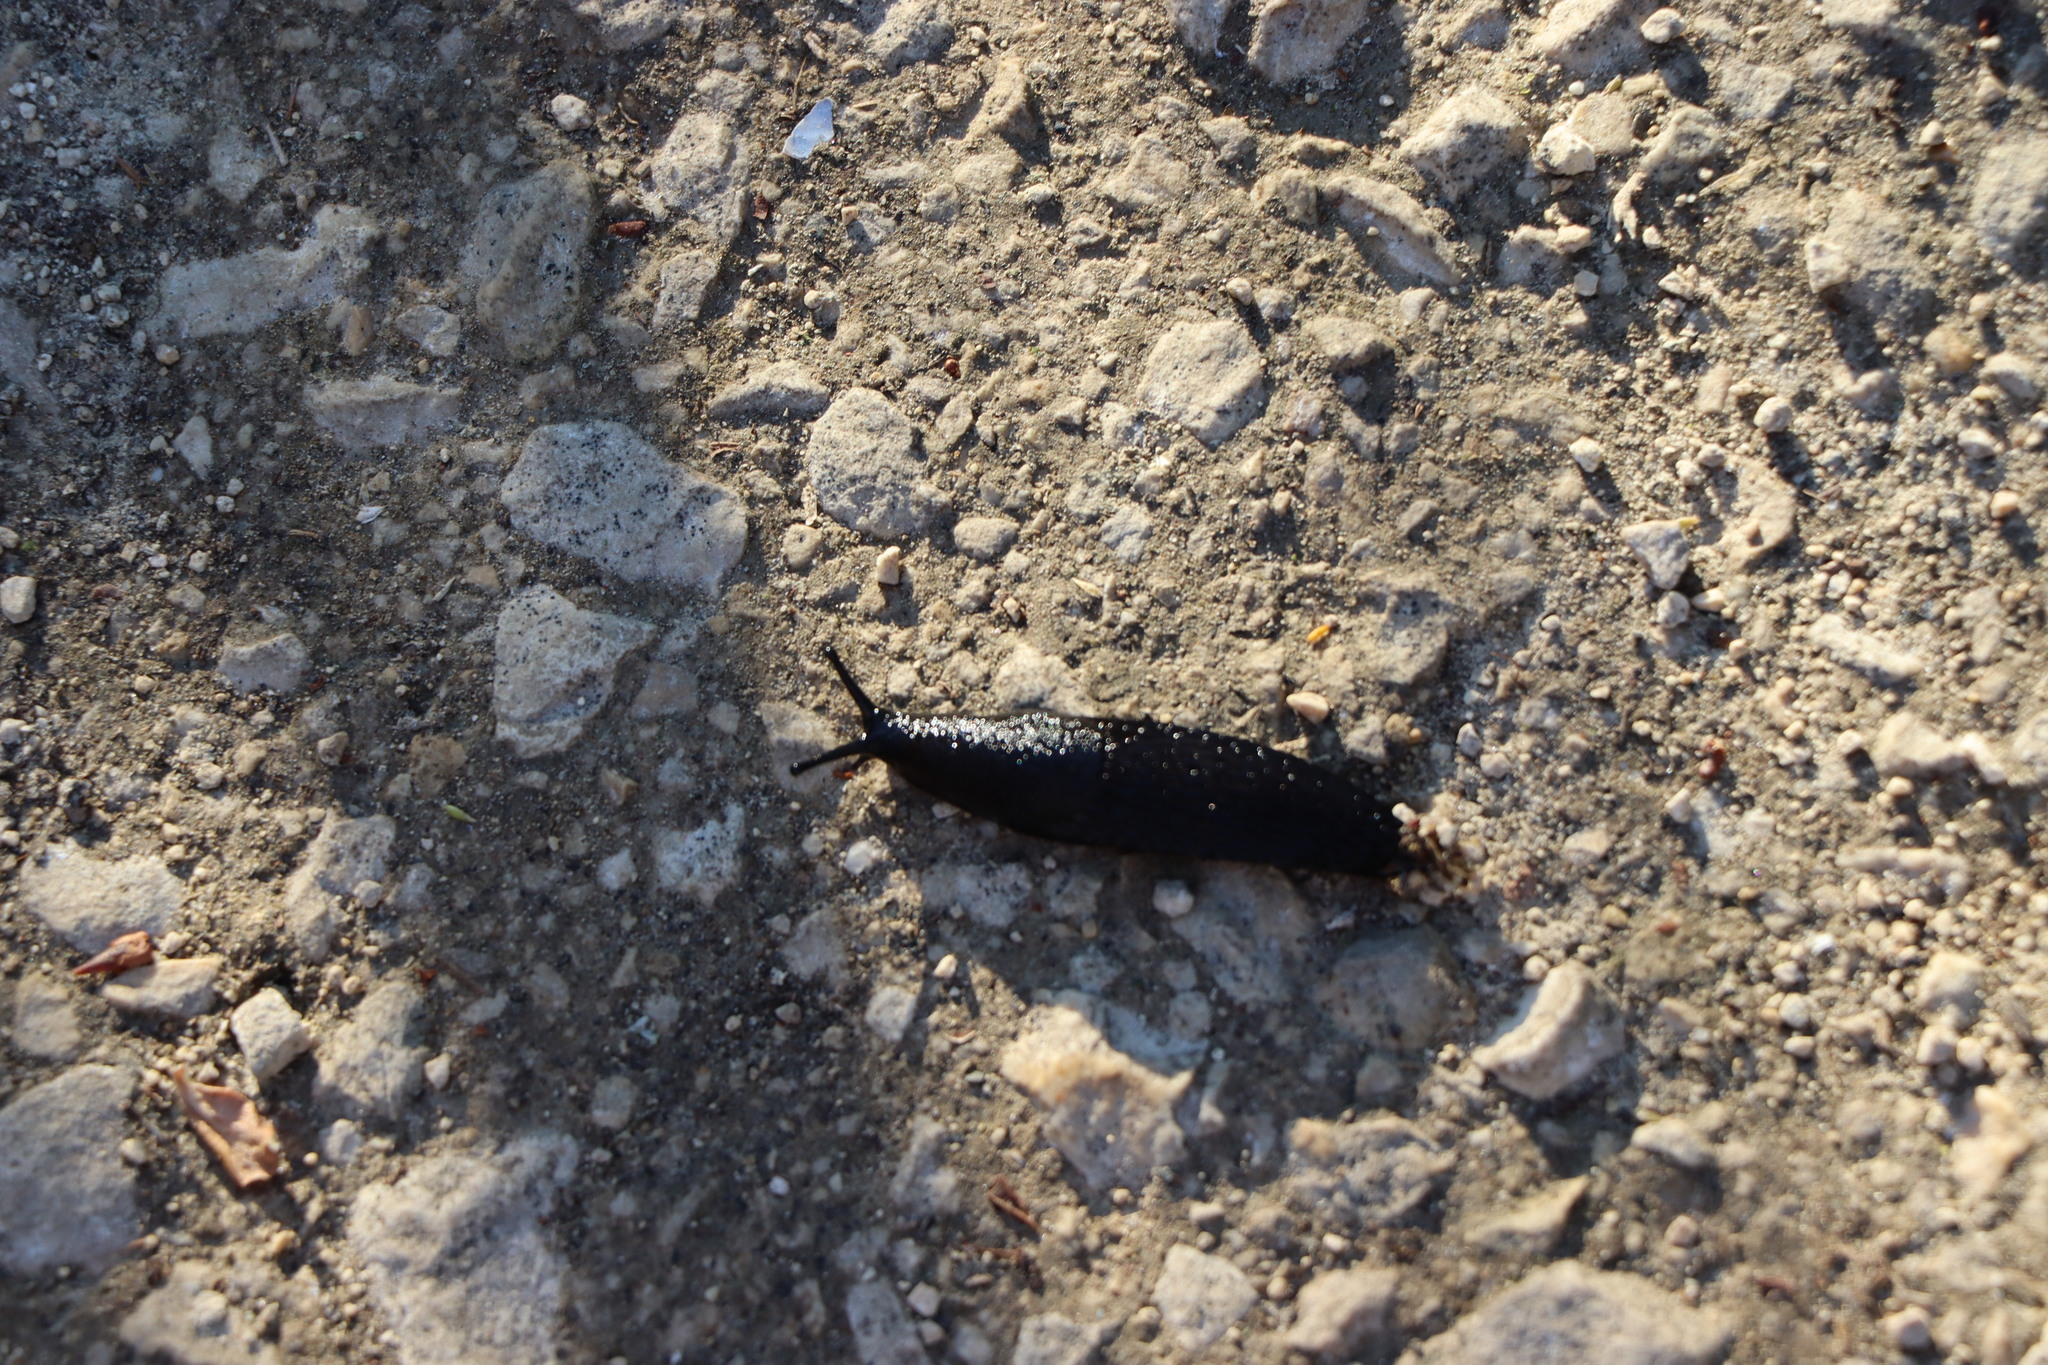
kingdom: Animalia
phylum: Mollusca
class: Gastropoda
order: Stylommatophora
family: Arionidae
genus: Arion
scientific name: Arion ater
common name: Black arion
